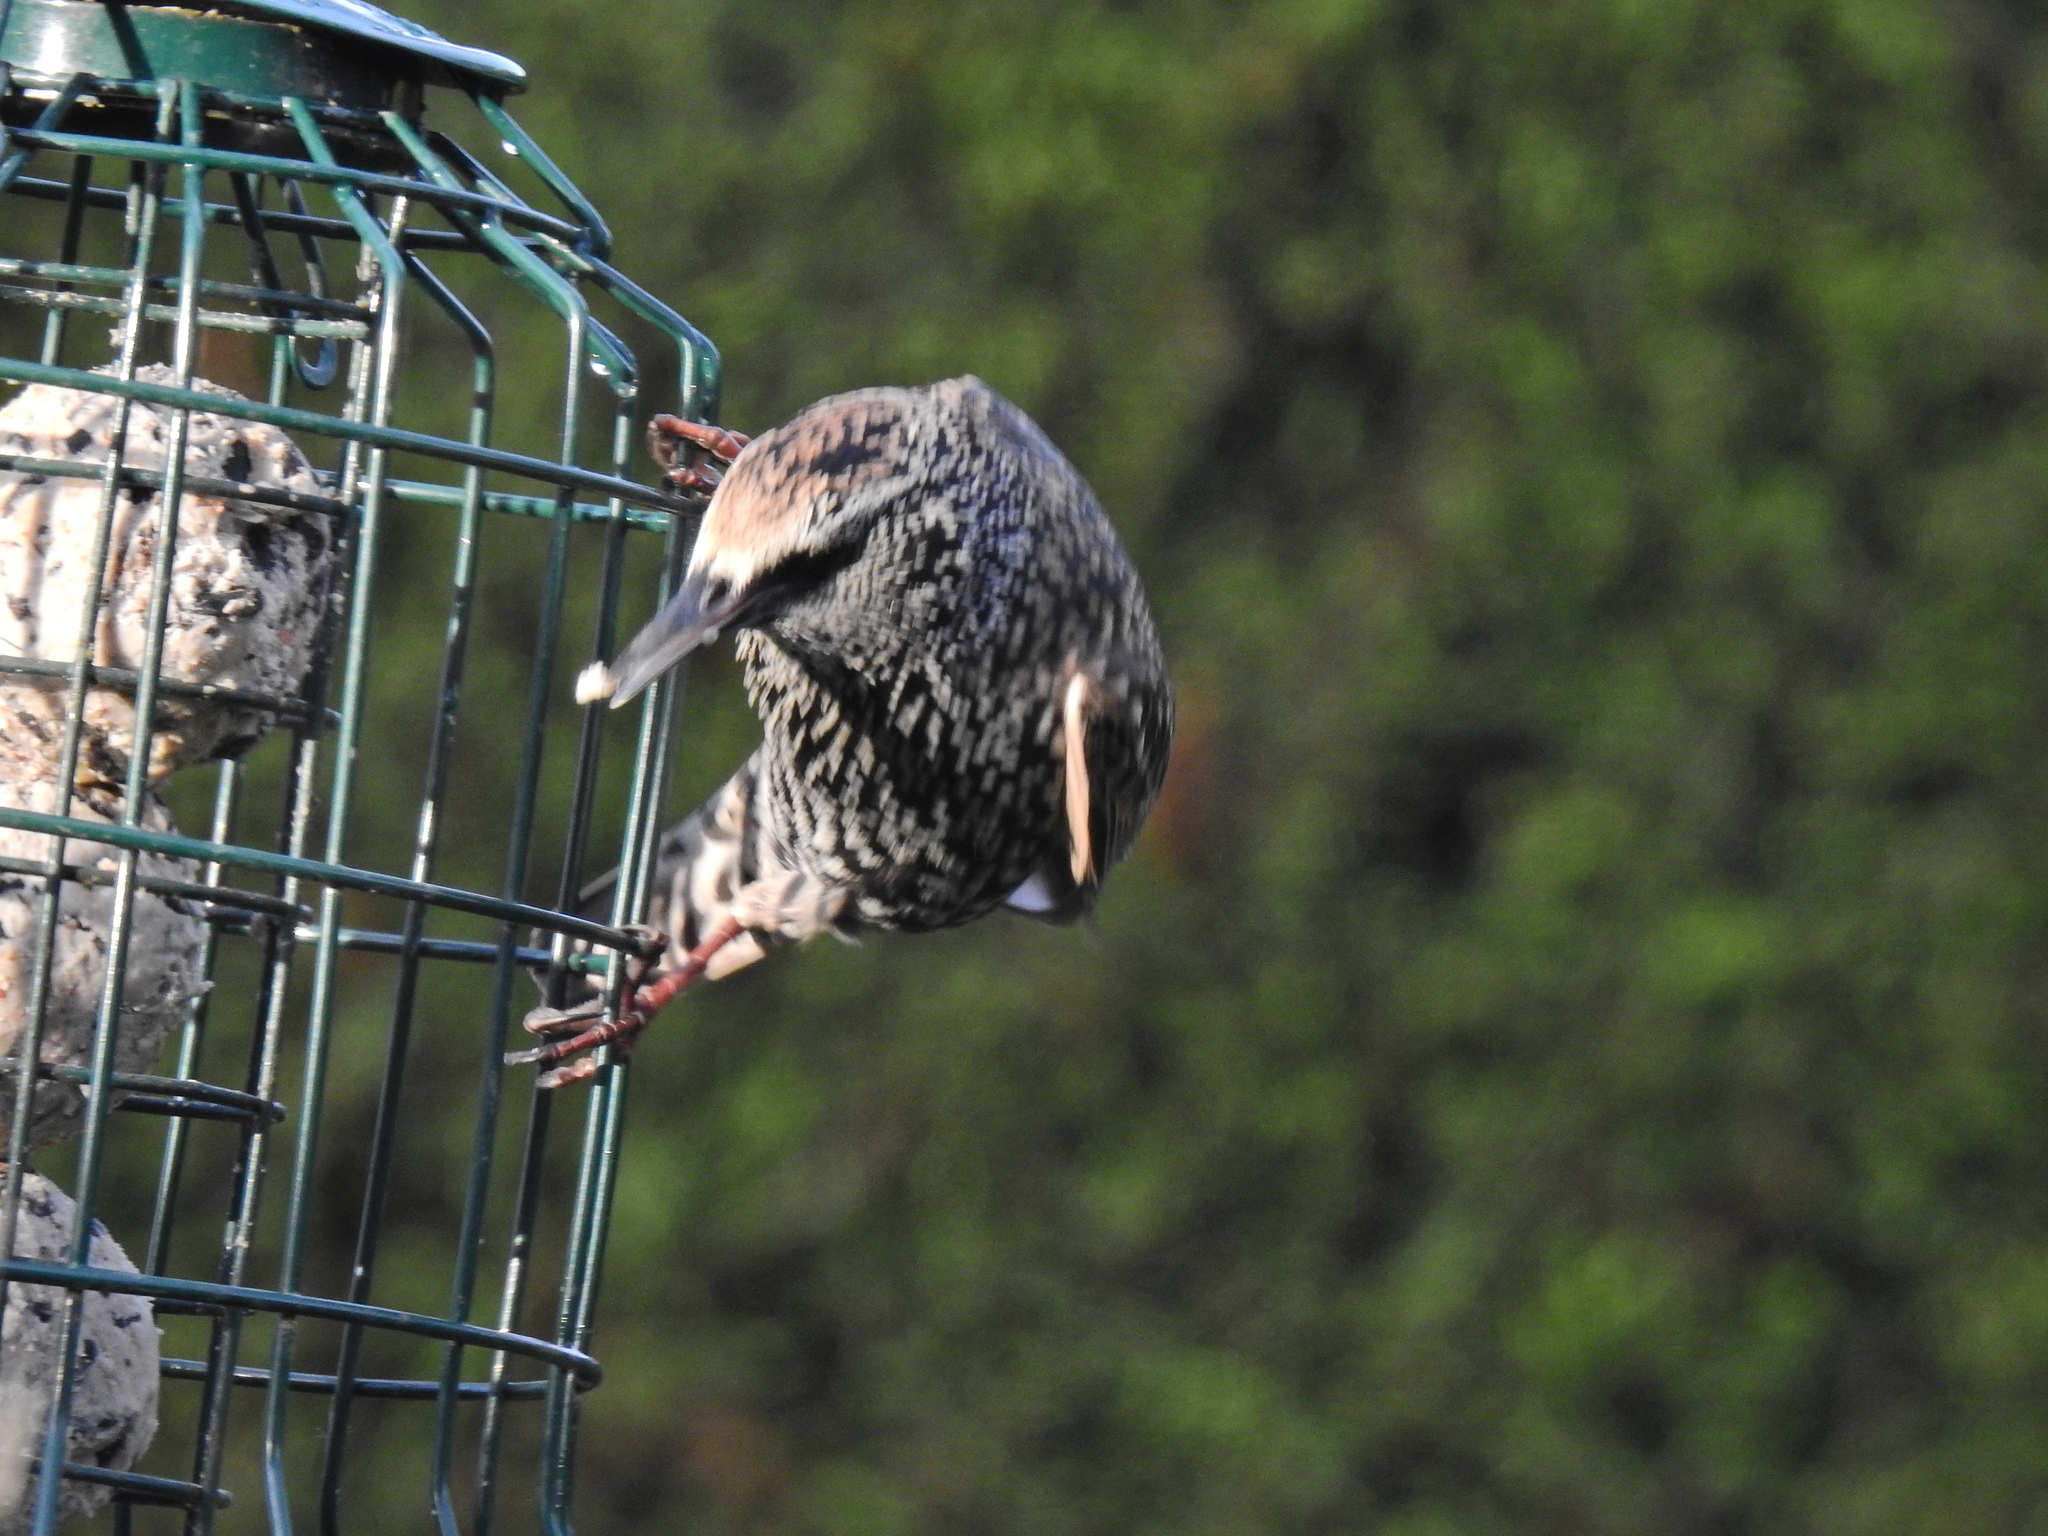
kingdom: Animalia
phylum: Chordata
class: Aves
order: Passeriformes
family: Sturnidae
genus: Sturnus
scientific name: Sturnus vulgaris
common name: Common starling
